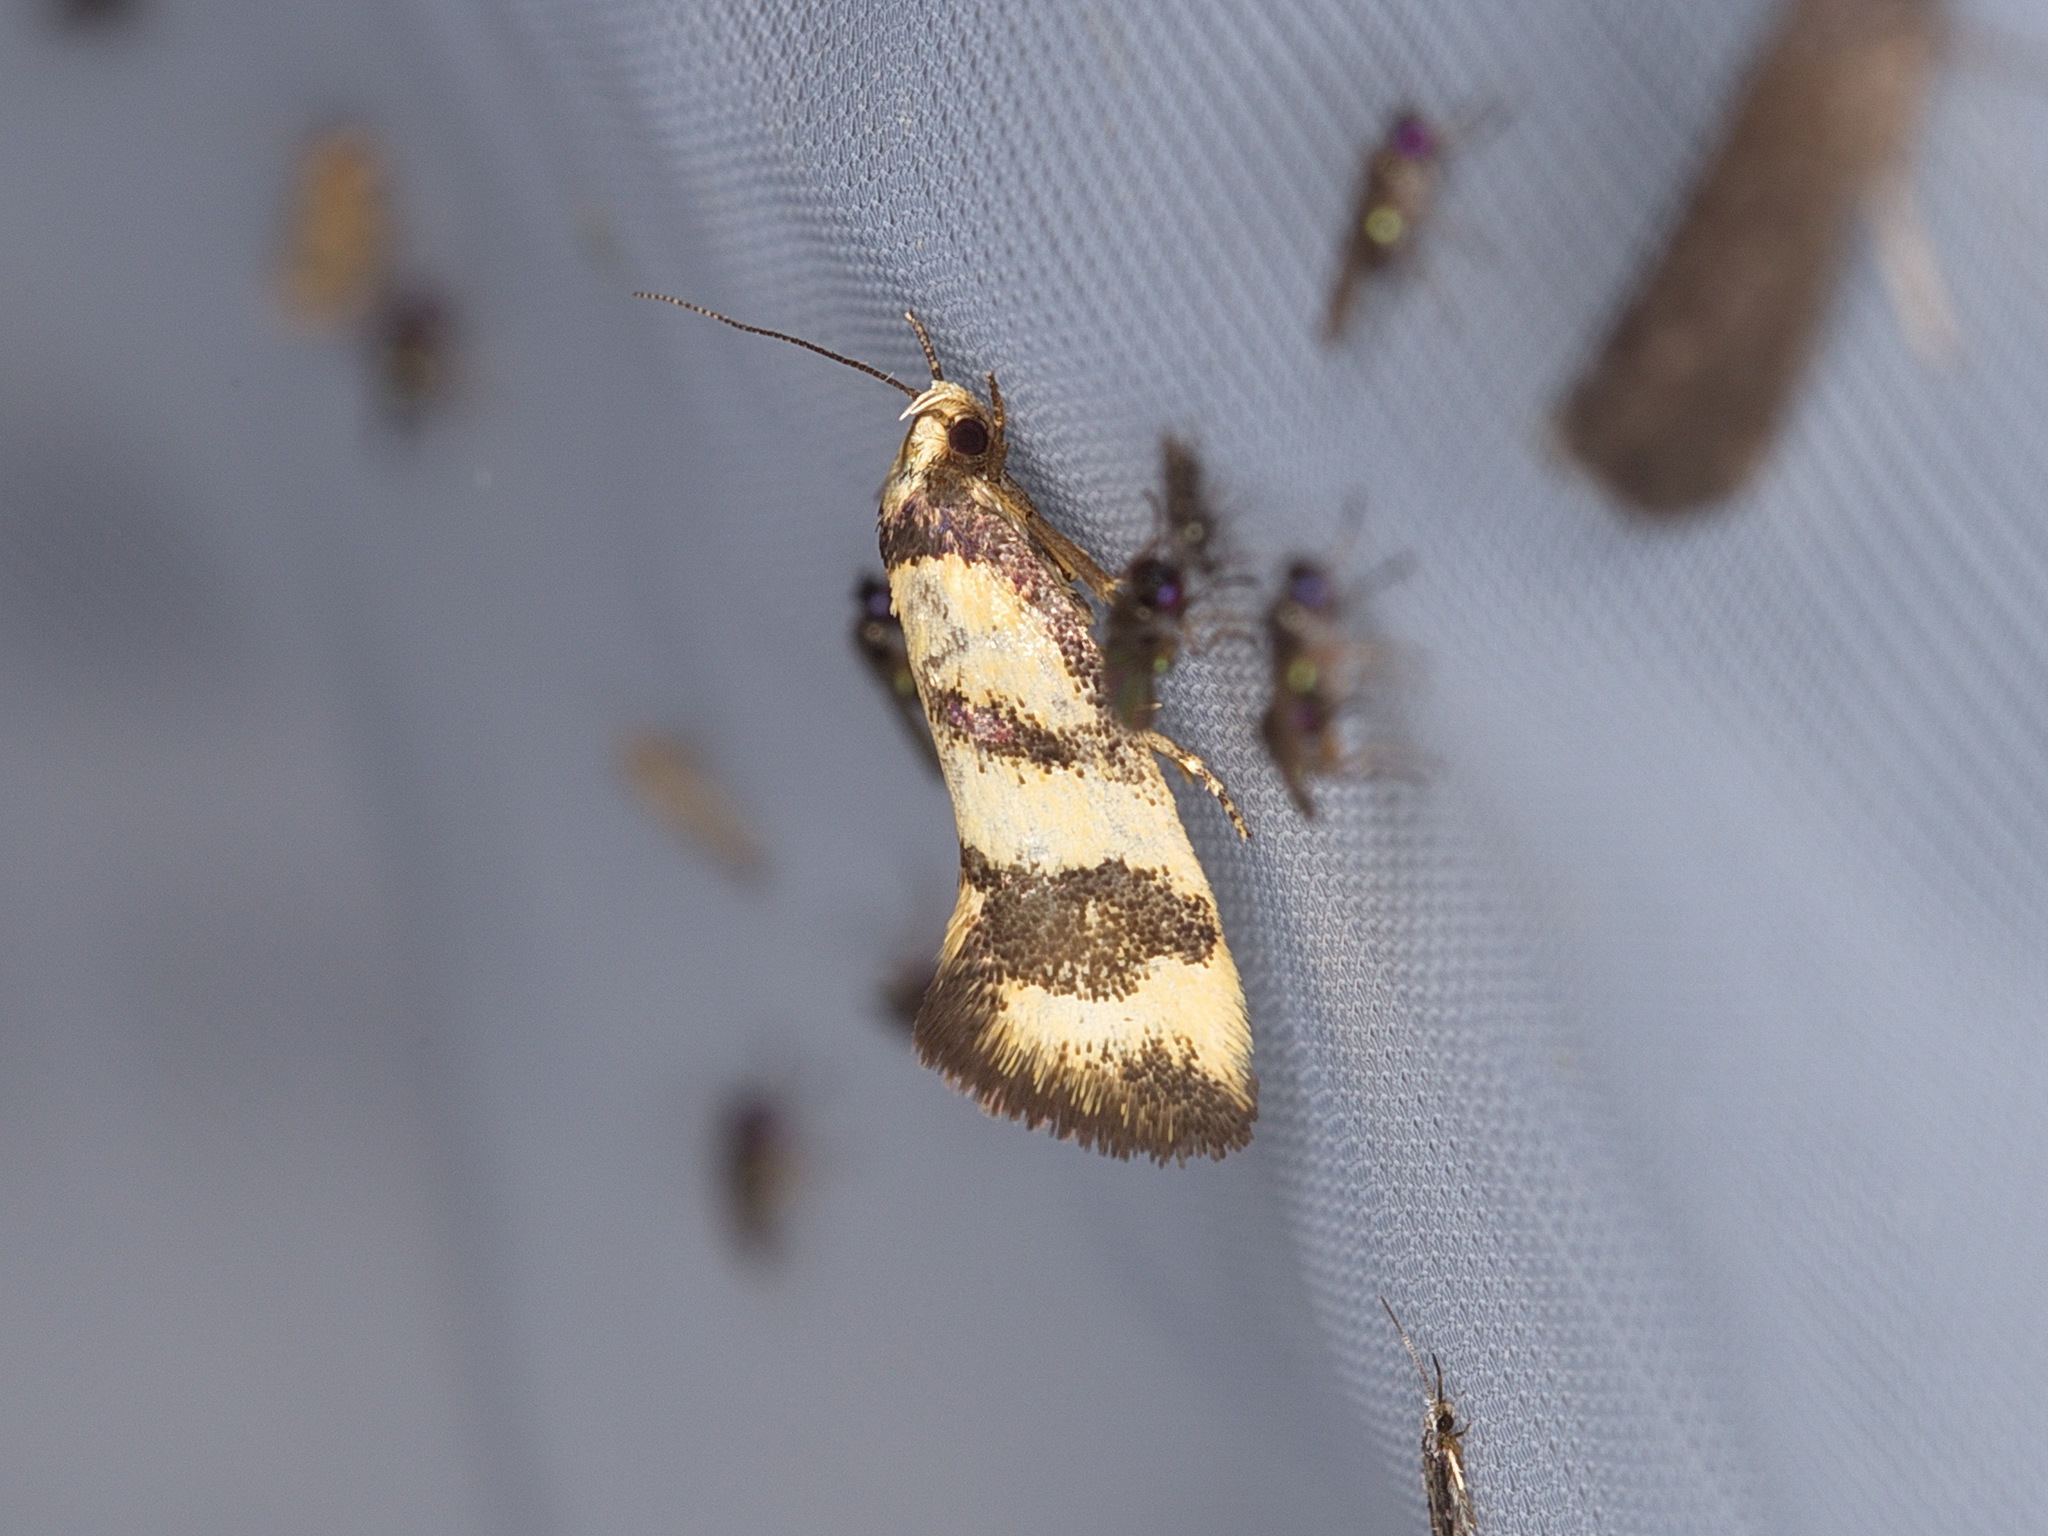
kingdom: Animalia
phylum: Arthropoda
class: Insecta
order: Lepidoptera
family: Oecophoridae
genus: Olbonoma
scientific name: Olbonoma triptycha
